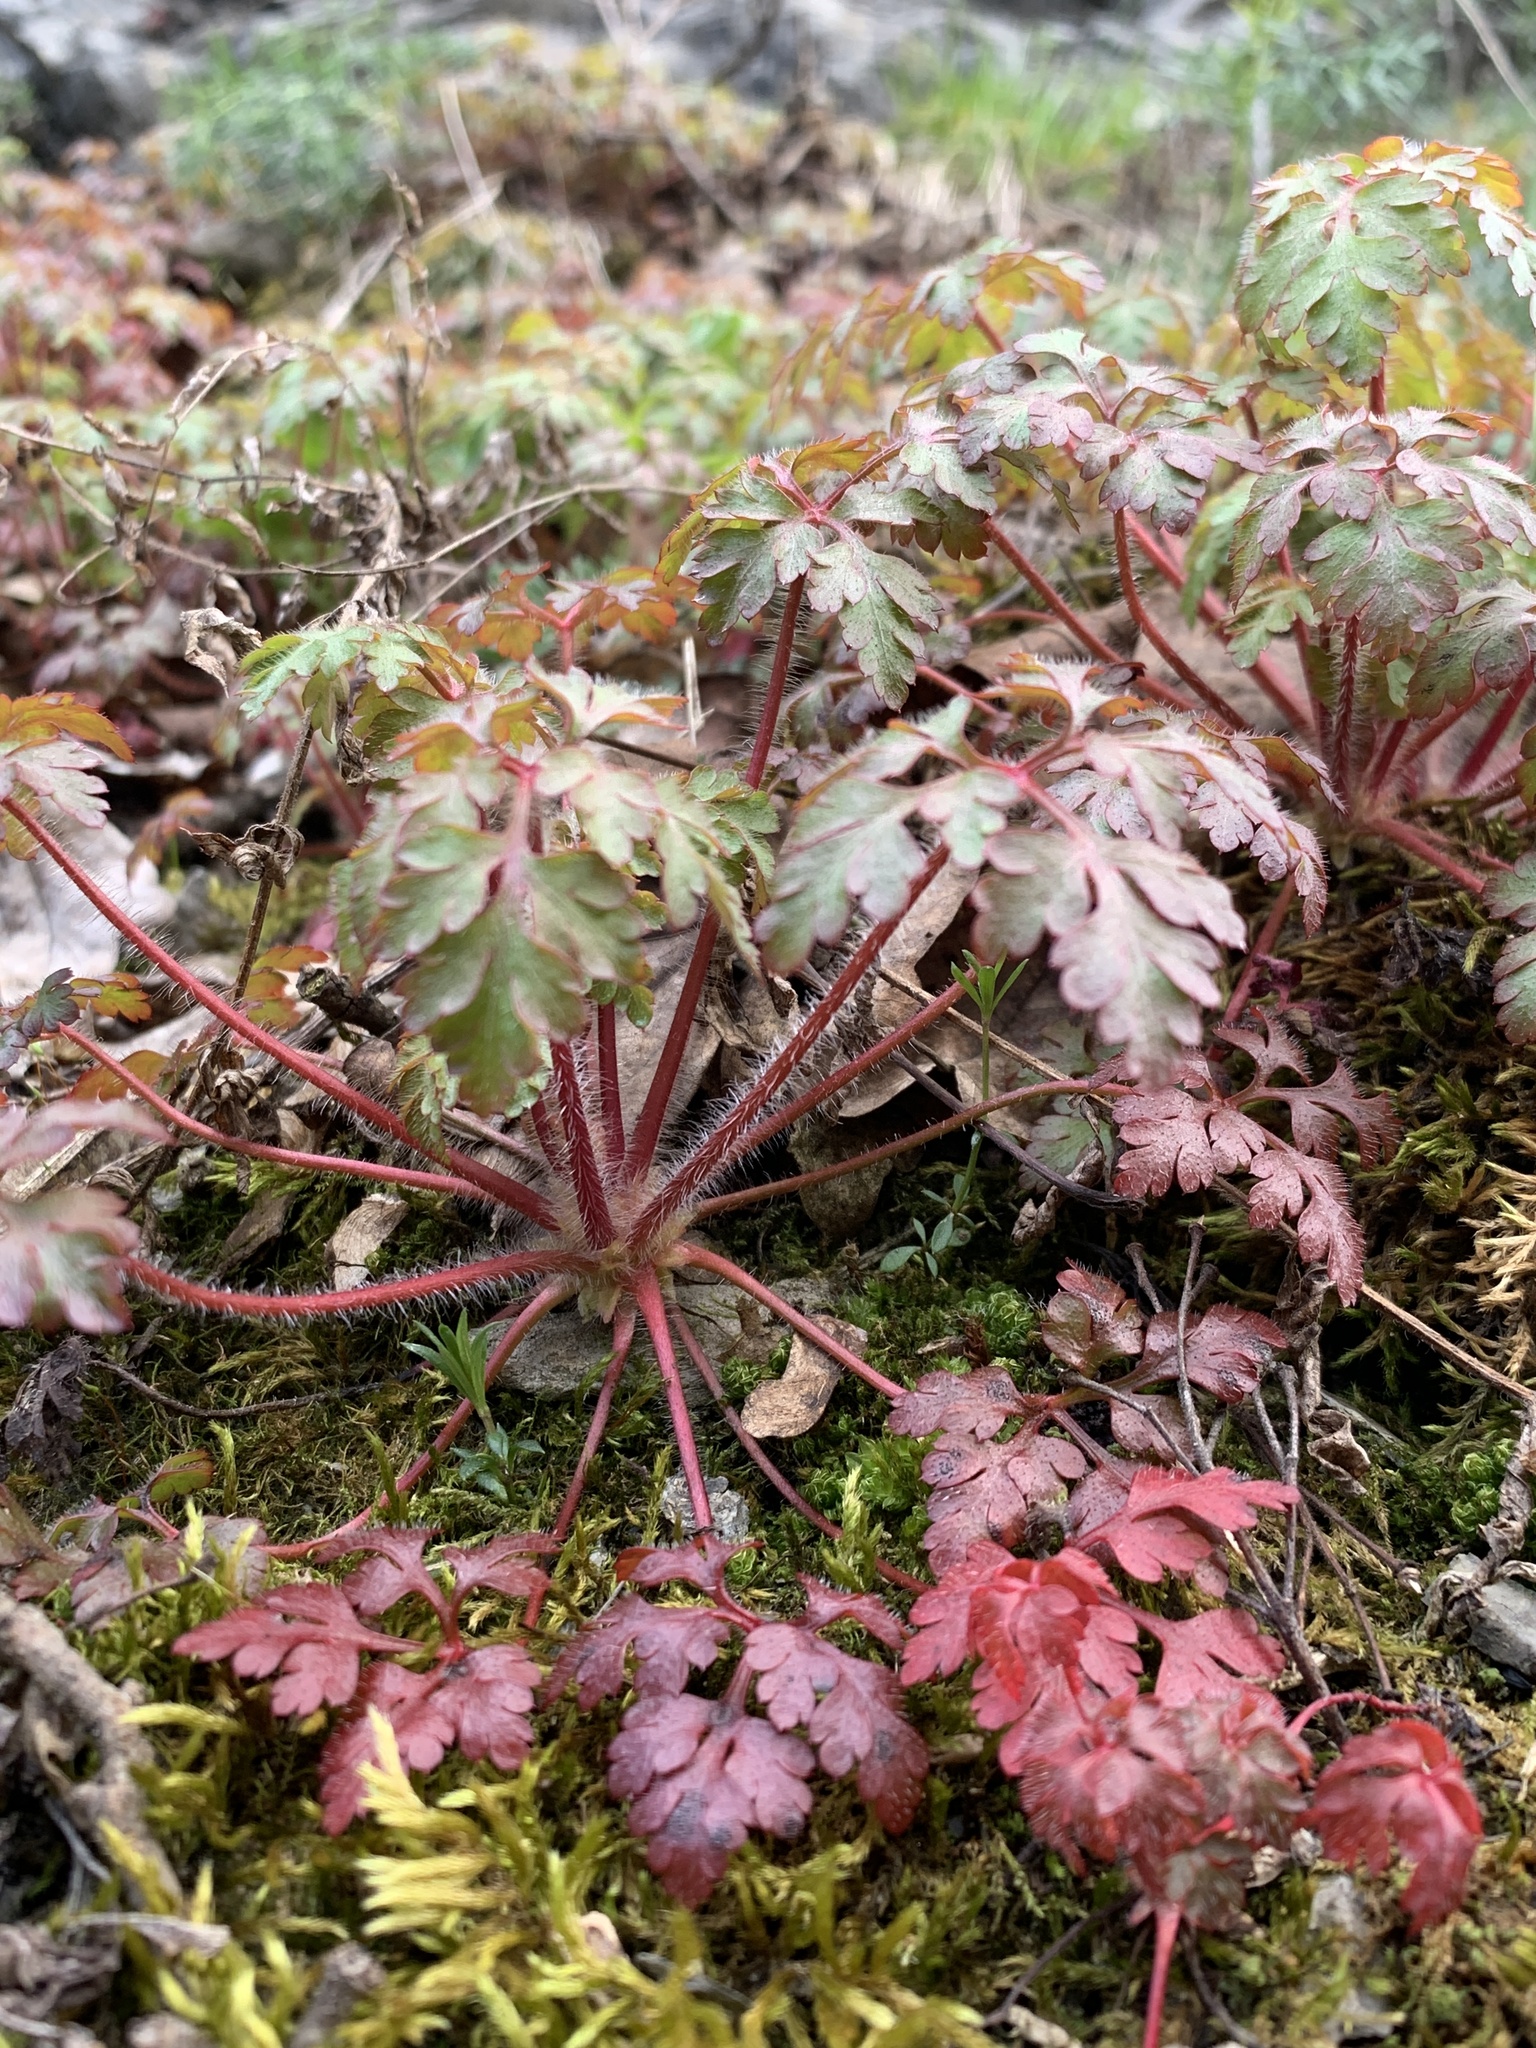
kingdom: Plantae
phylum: Tracheophyta
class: Magnoliopsida
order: Geraniales
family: Geraniaceae
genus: Geranium
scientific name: Geranium robertianum
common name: Herb-robert
